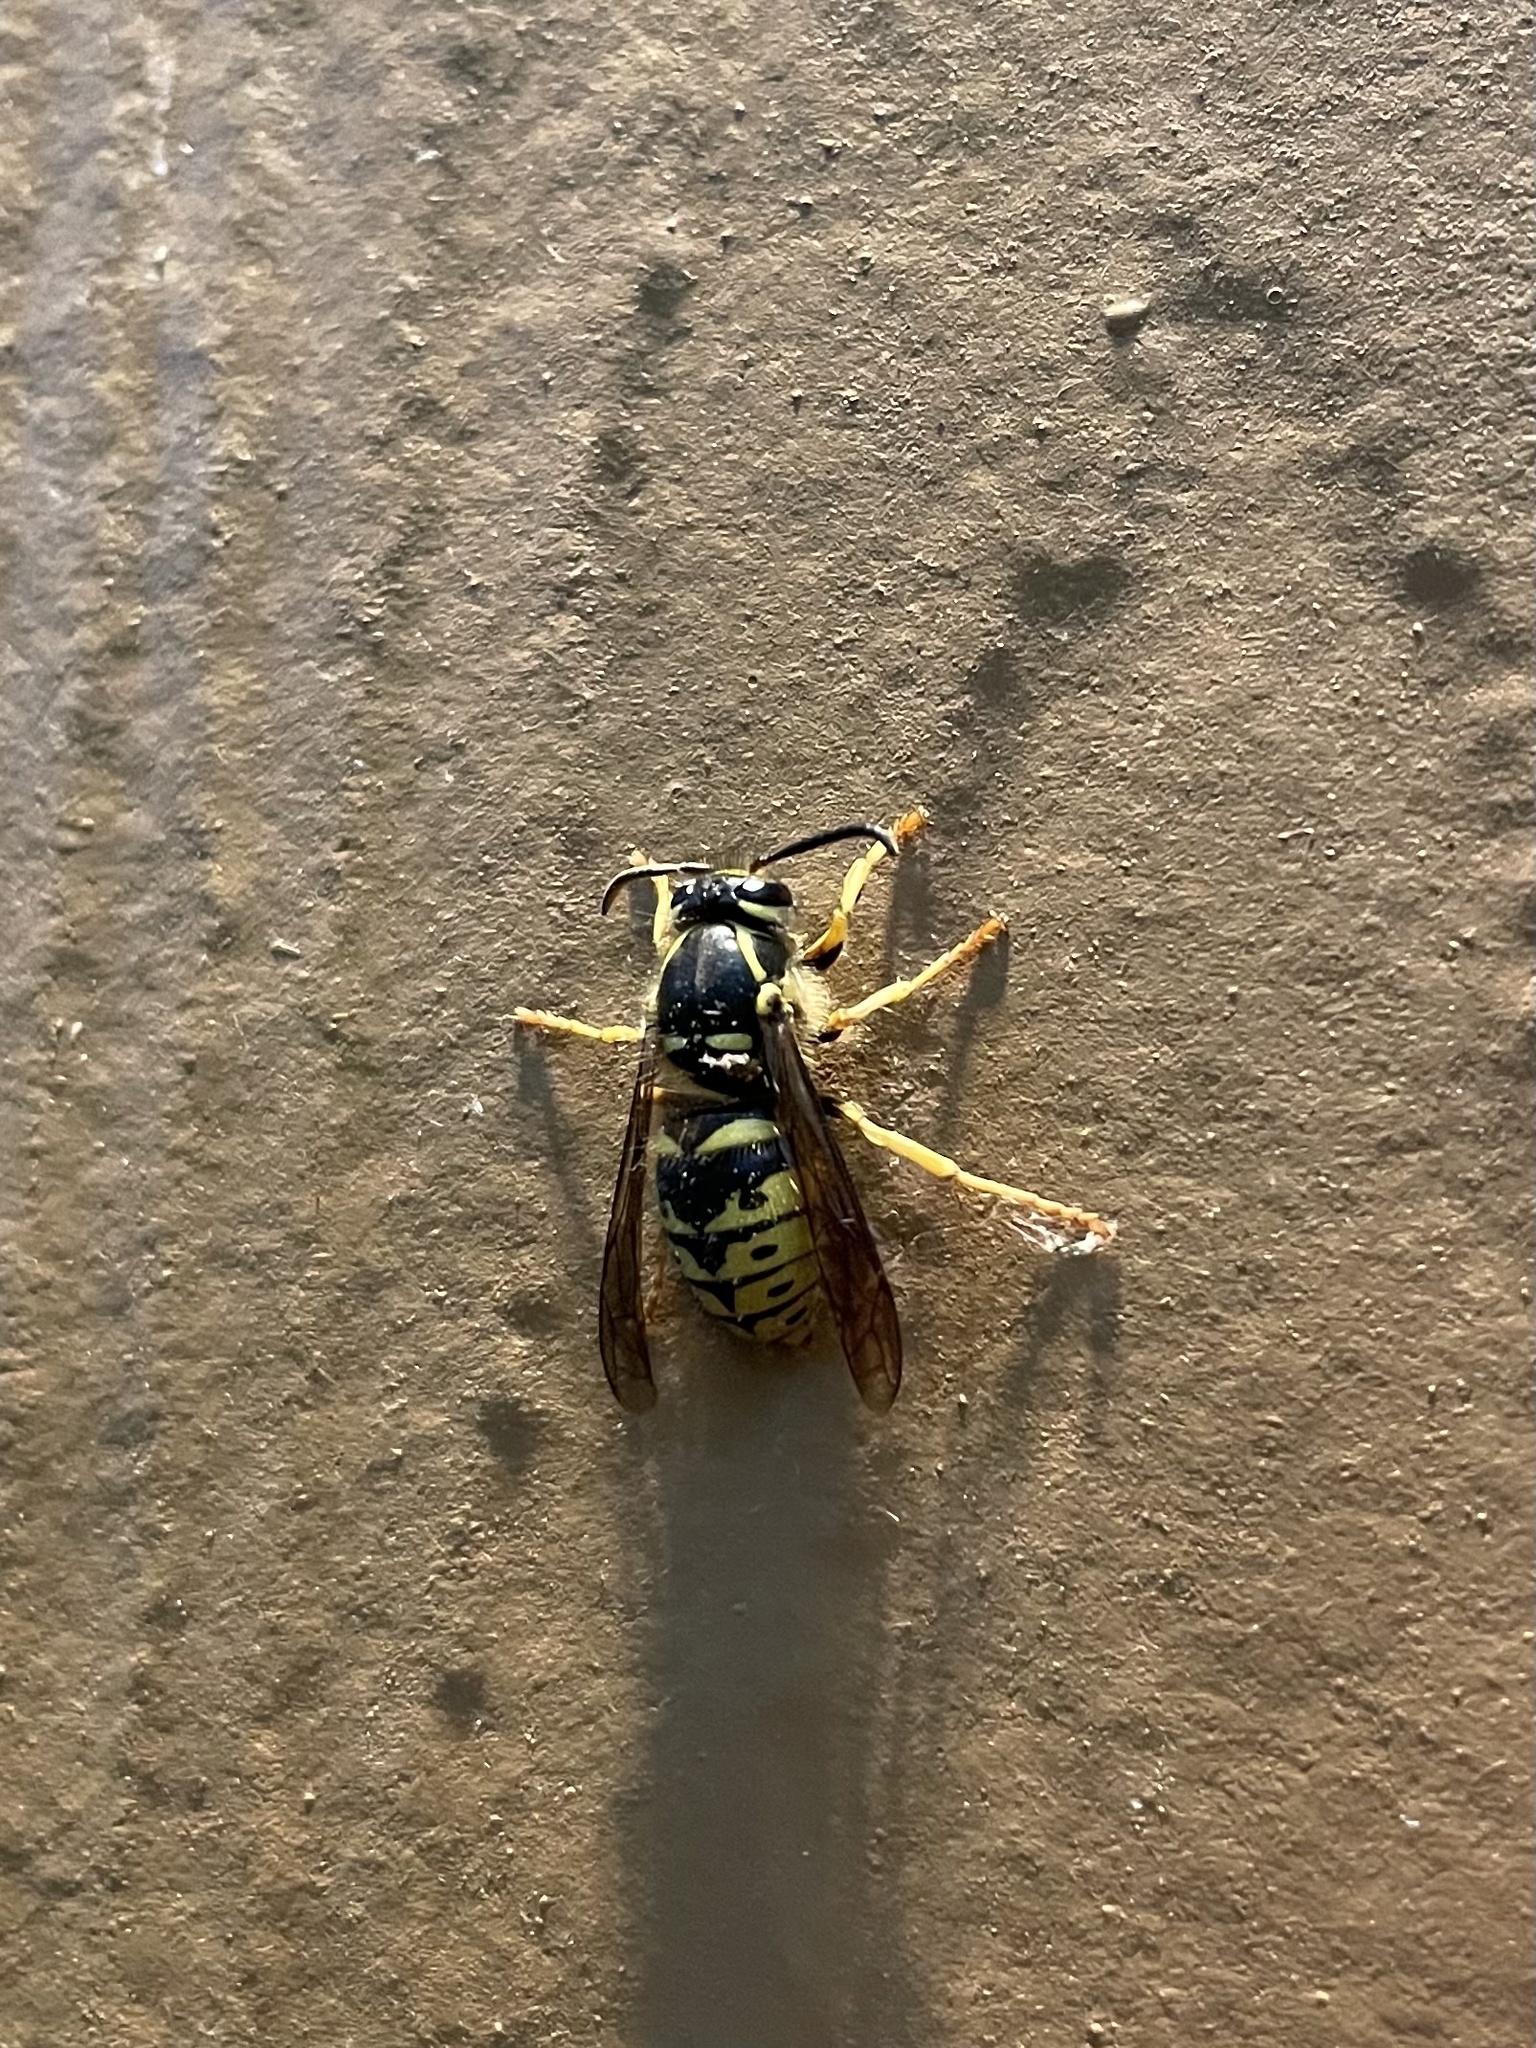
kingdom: Animalia
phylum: Arthropoda
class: Insecta
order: Hymenoptera
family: Vespidae
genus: Dolichovespula
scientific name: Dolichovespula arenaria
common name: Aerial yellowjacket
